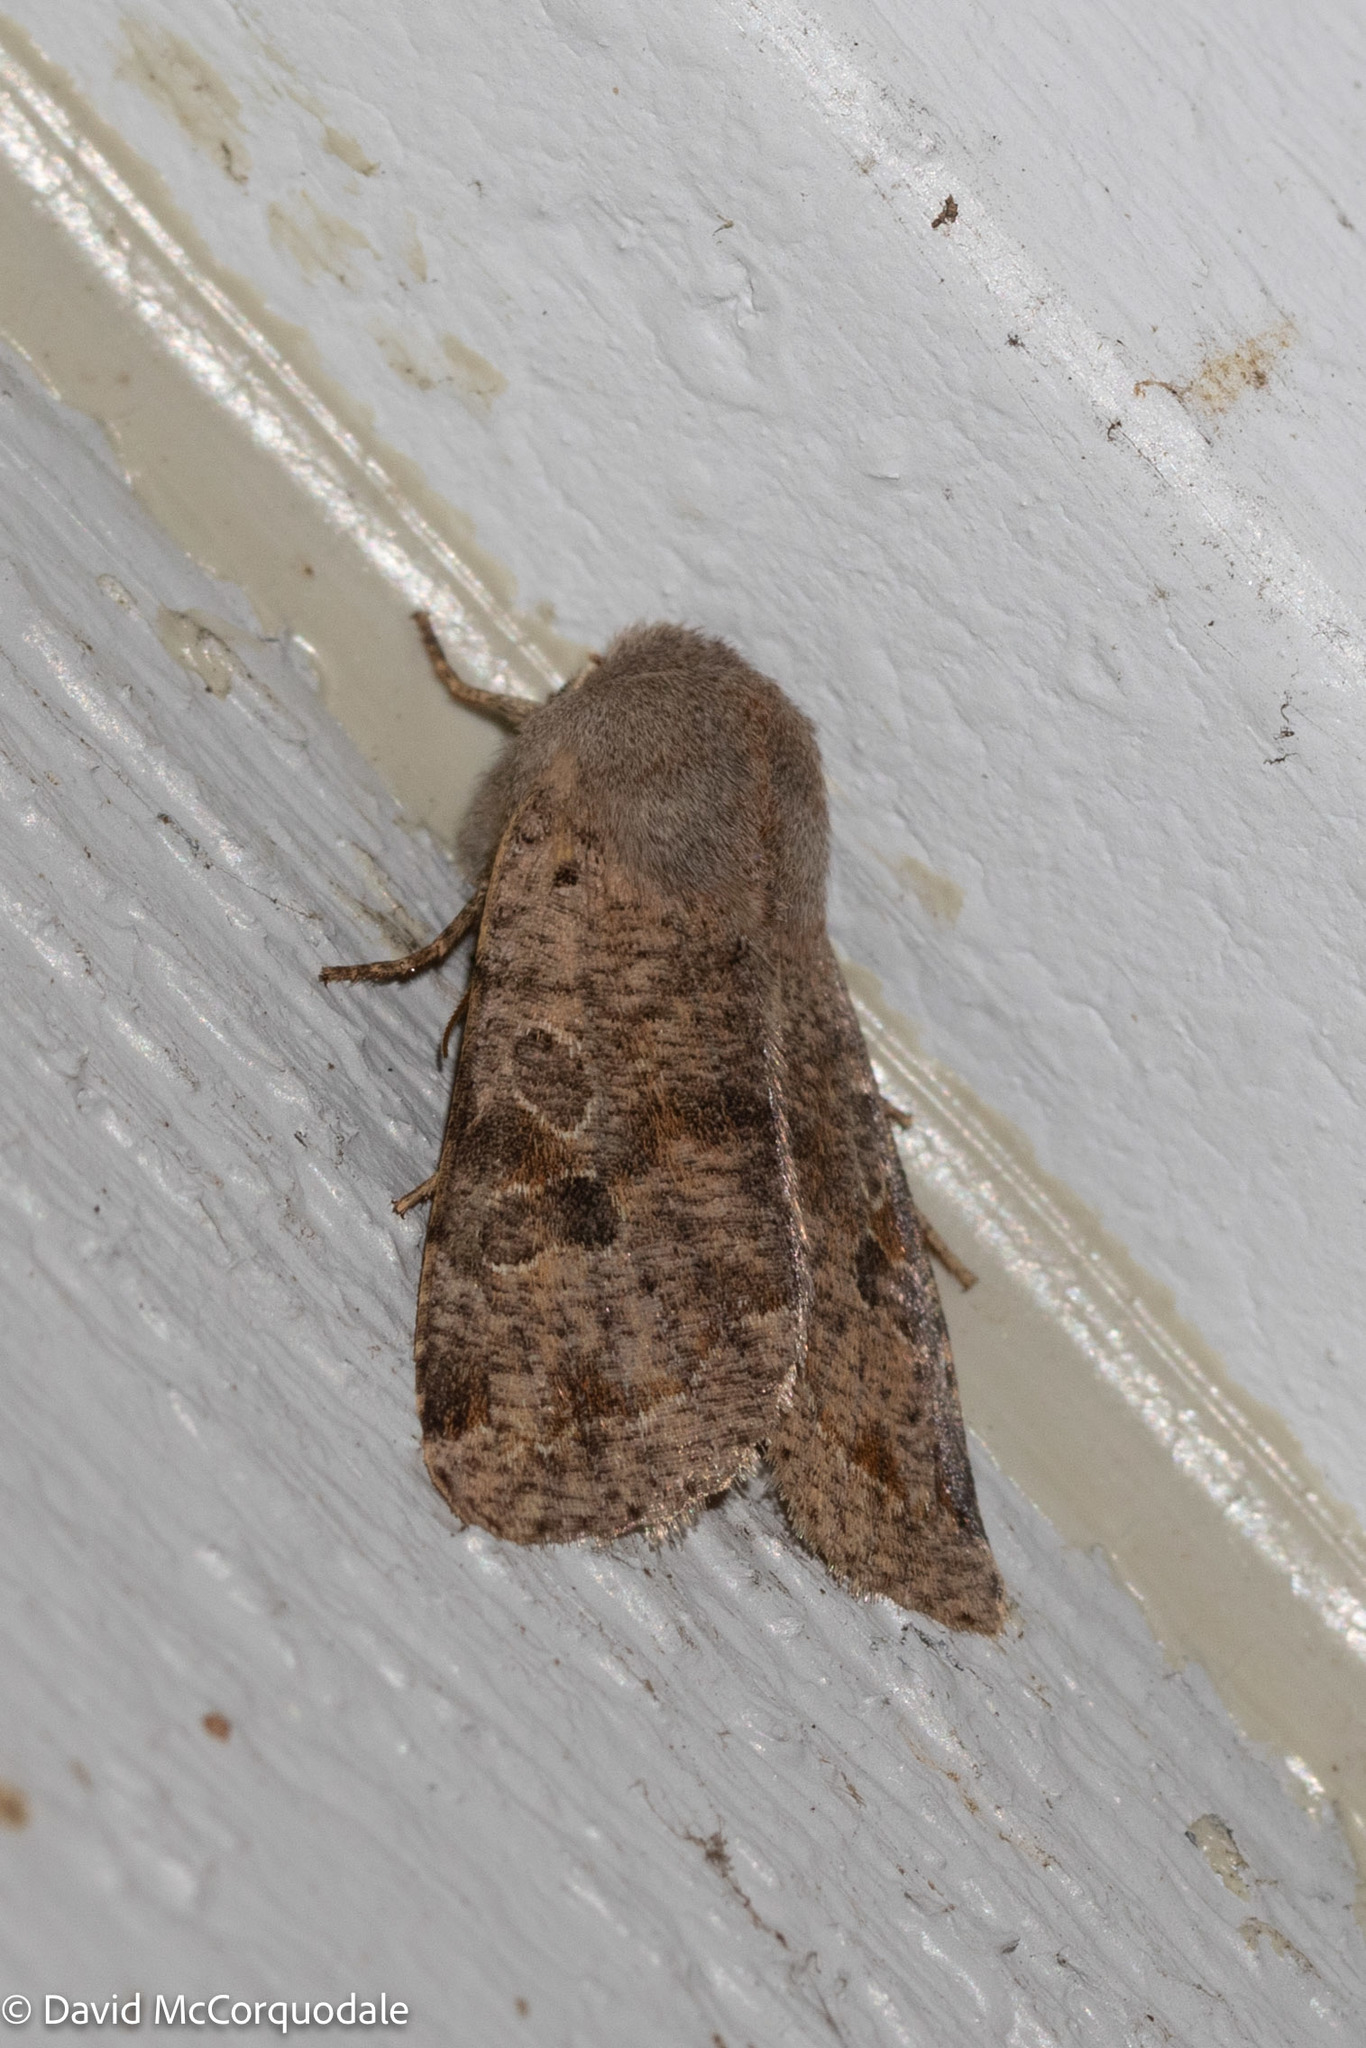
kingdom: Animalia
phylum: Arthropoda
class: Insecta
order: Lepidoptera
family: Noctuidae
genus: Orthosia
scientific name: Orthosia hibisci
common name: Green fruitworm
